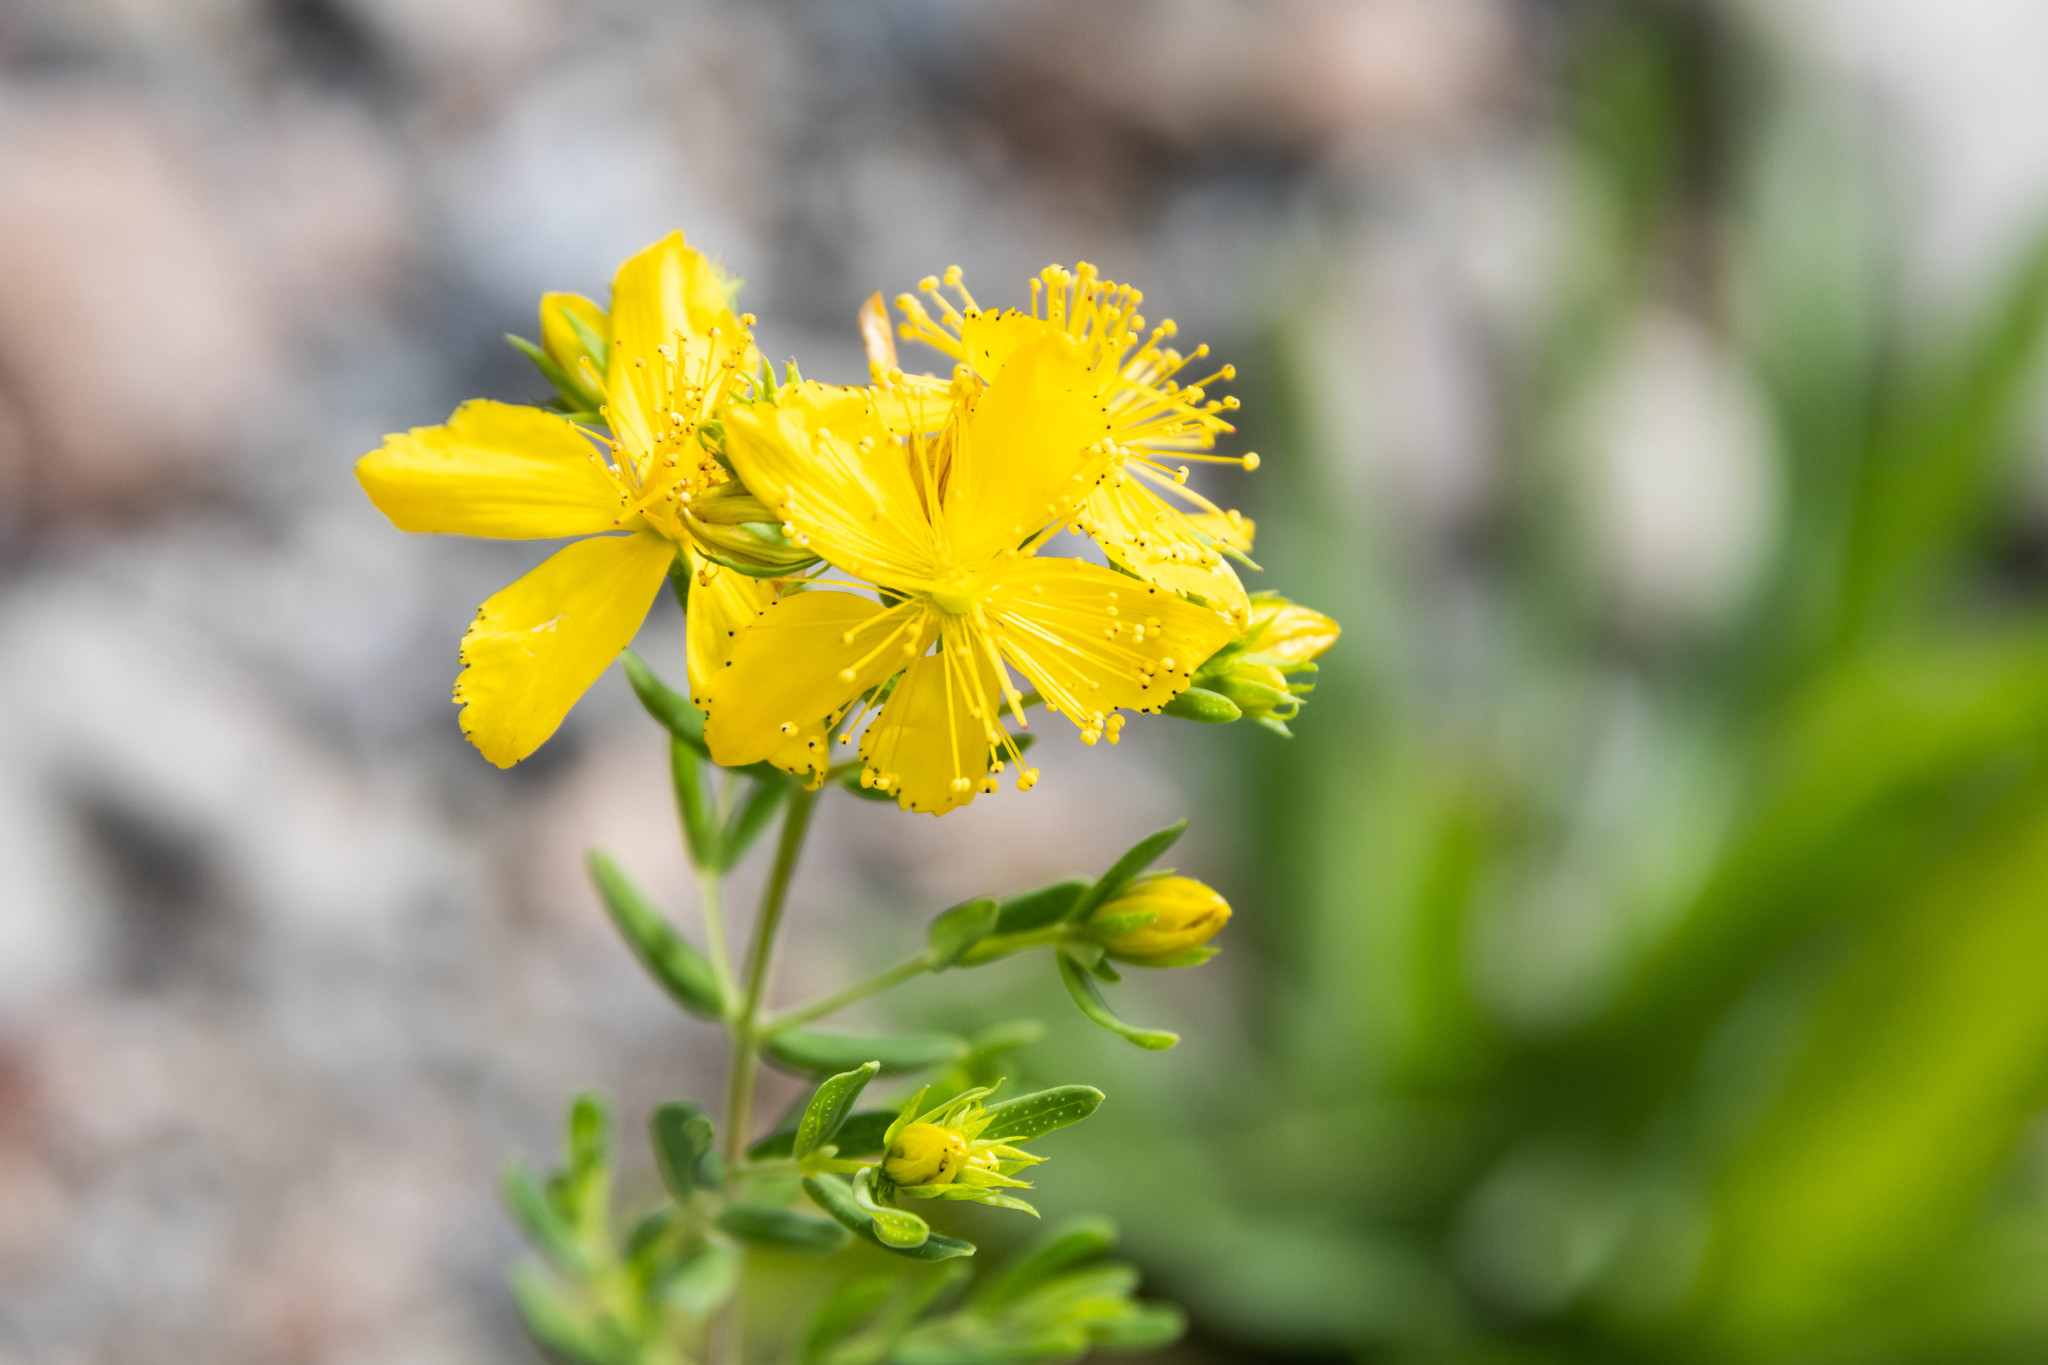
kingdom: Plantae
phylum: Tracheophyta
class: Magnoliopsida
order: Malpighiales
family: Hypericaceae
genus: Hypericum
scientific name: Hypericum perforatum
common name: Common st. johnswort
